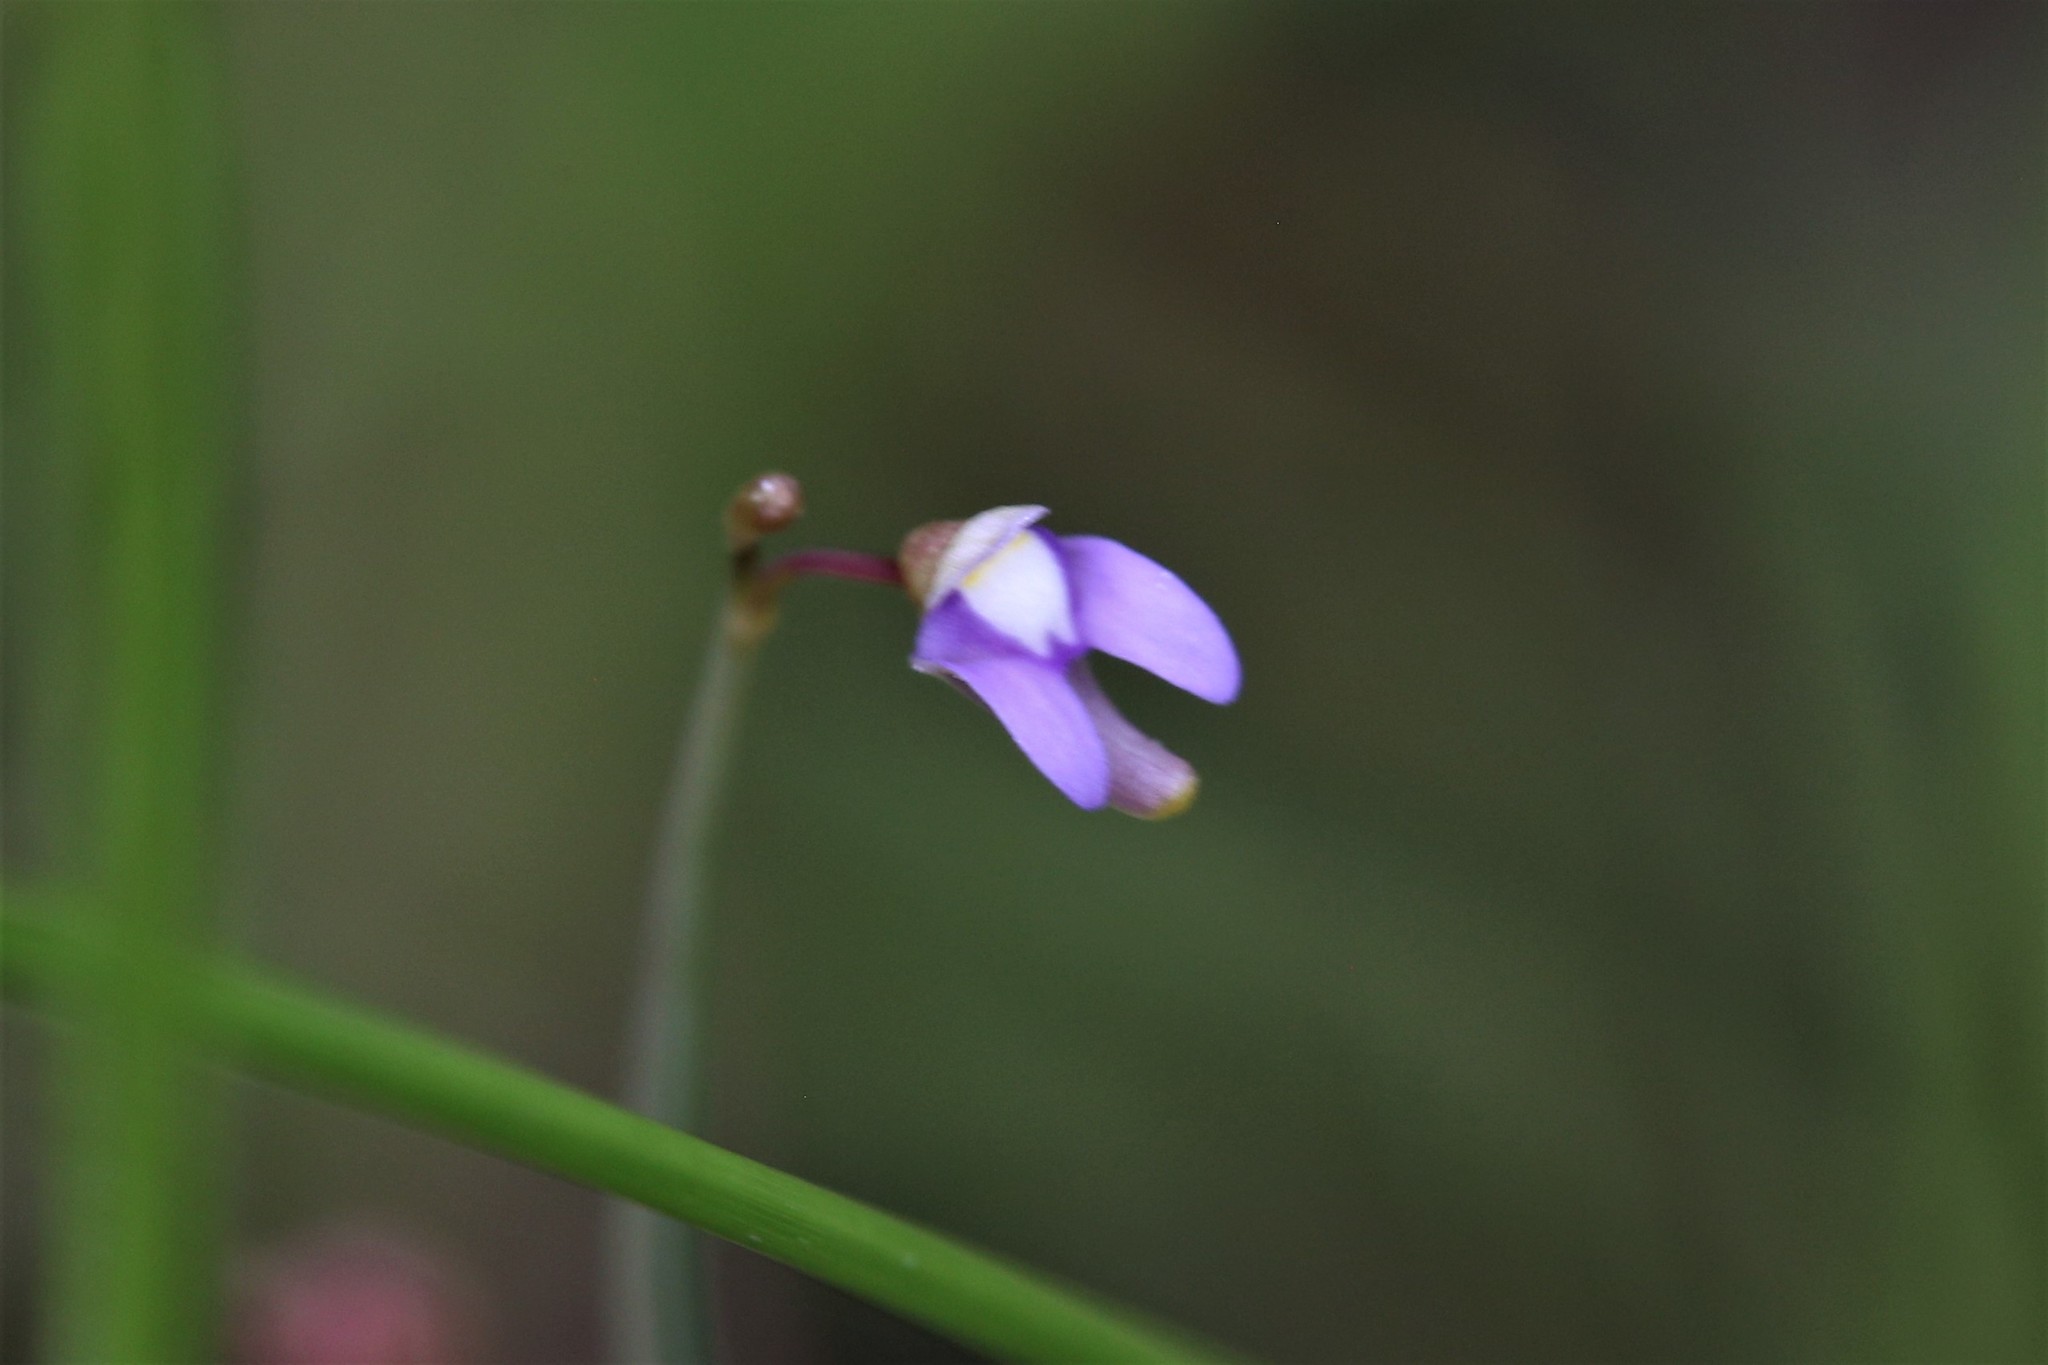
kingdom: Plantae
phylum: Tracheophyta
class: Magnoliopsida
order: Lamiales
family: Lentibulariaceae
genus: Utricularia
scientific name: Utricularia limosa
